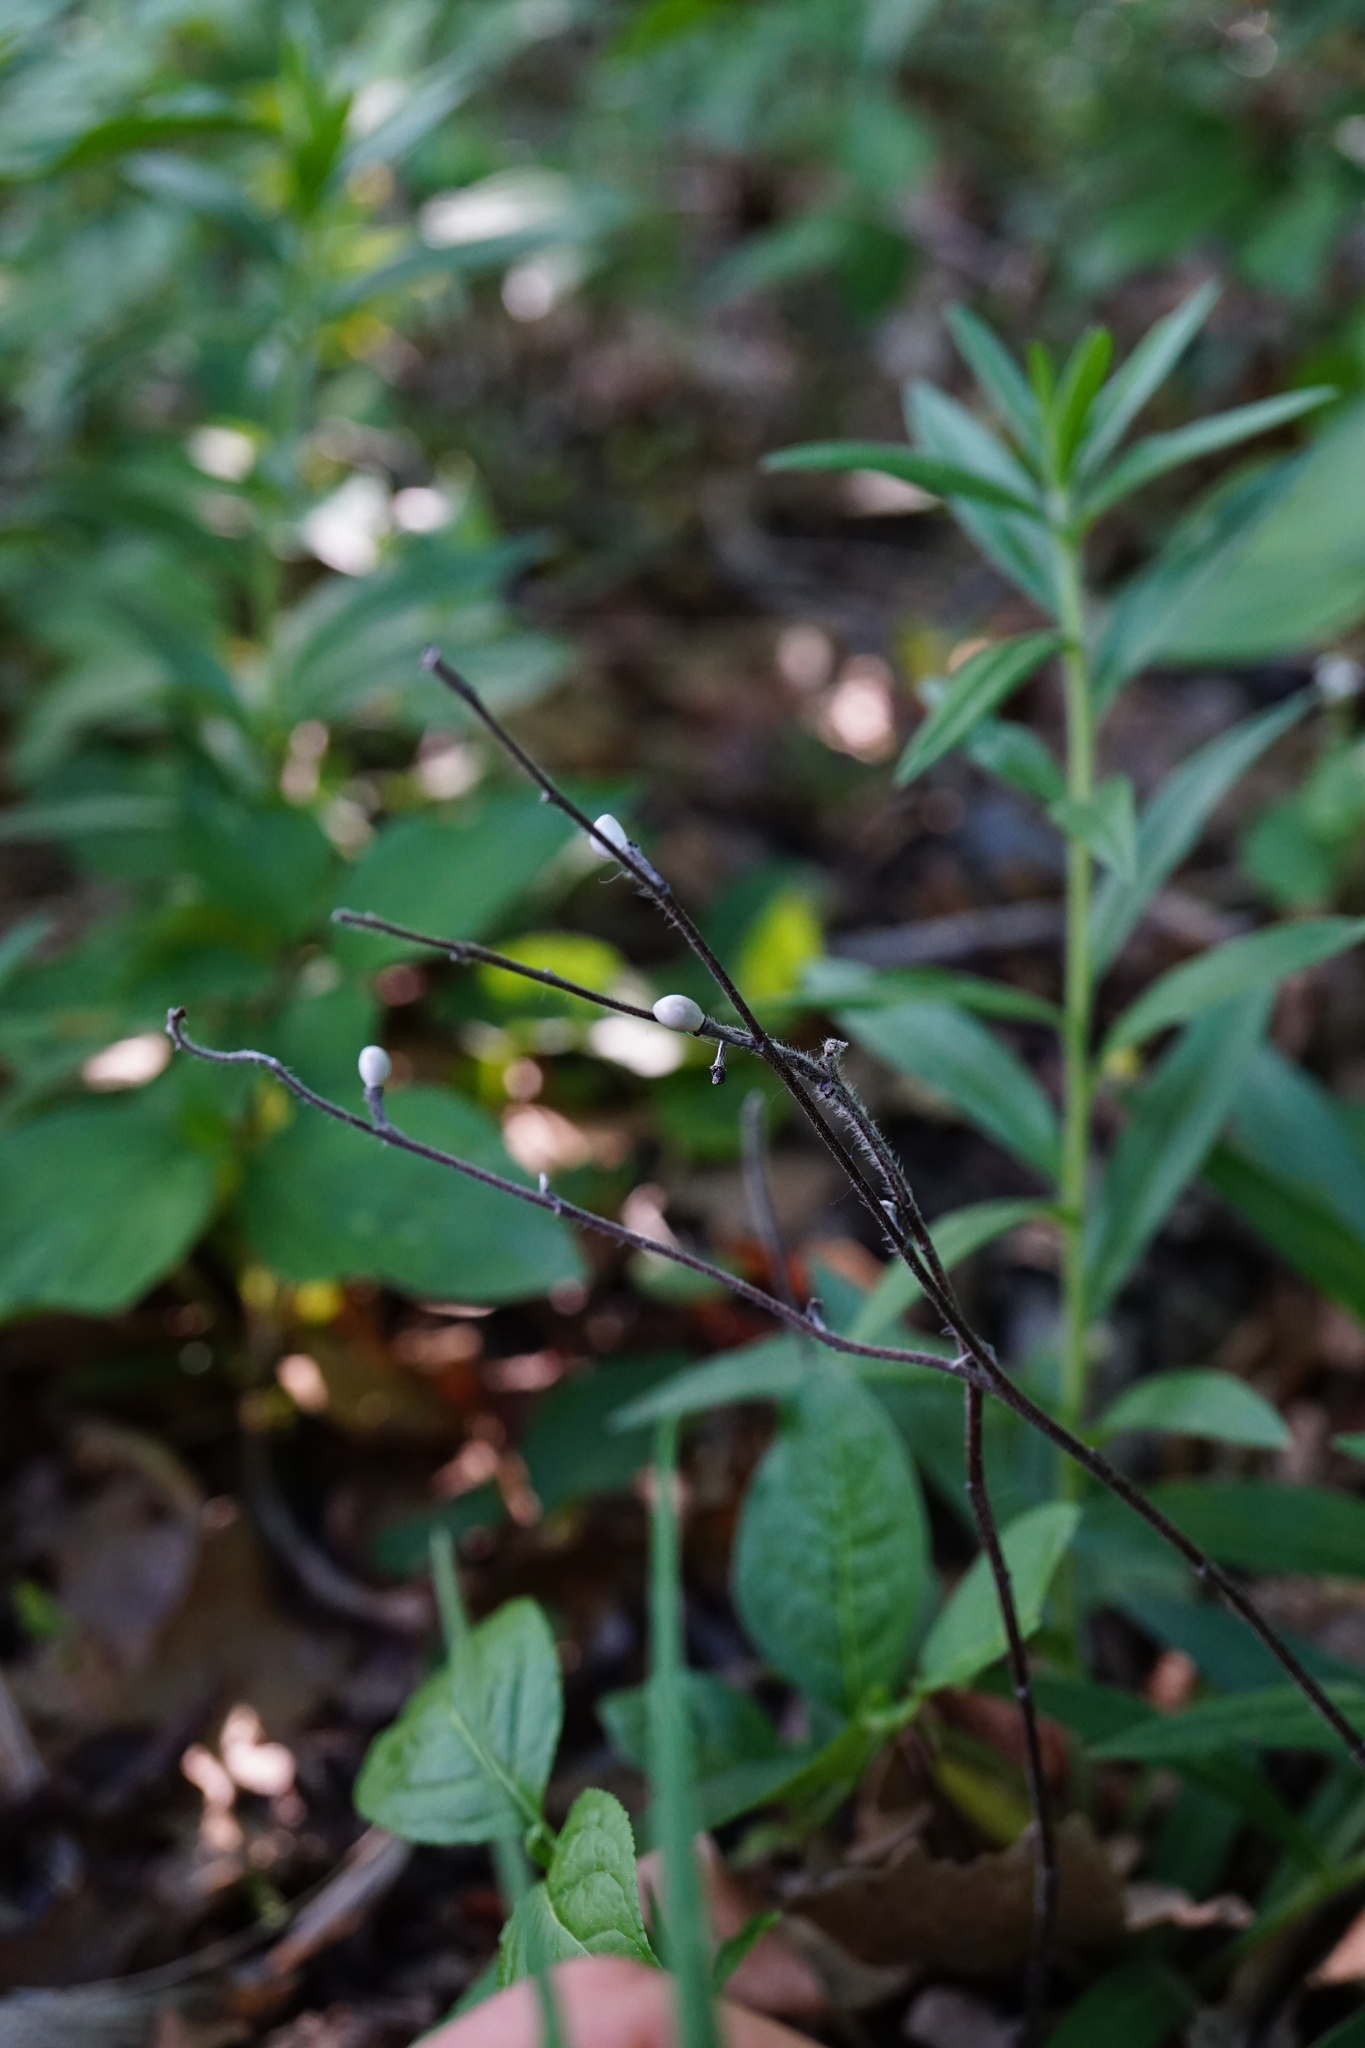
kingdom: Plantae
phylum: Tracheophyta
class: Magnoliopsida
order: Boraginales
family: Boraginaceae
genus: Aegonychon
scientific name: Aegonychon purpurocaeruleum
